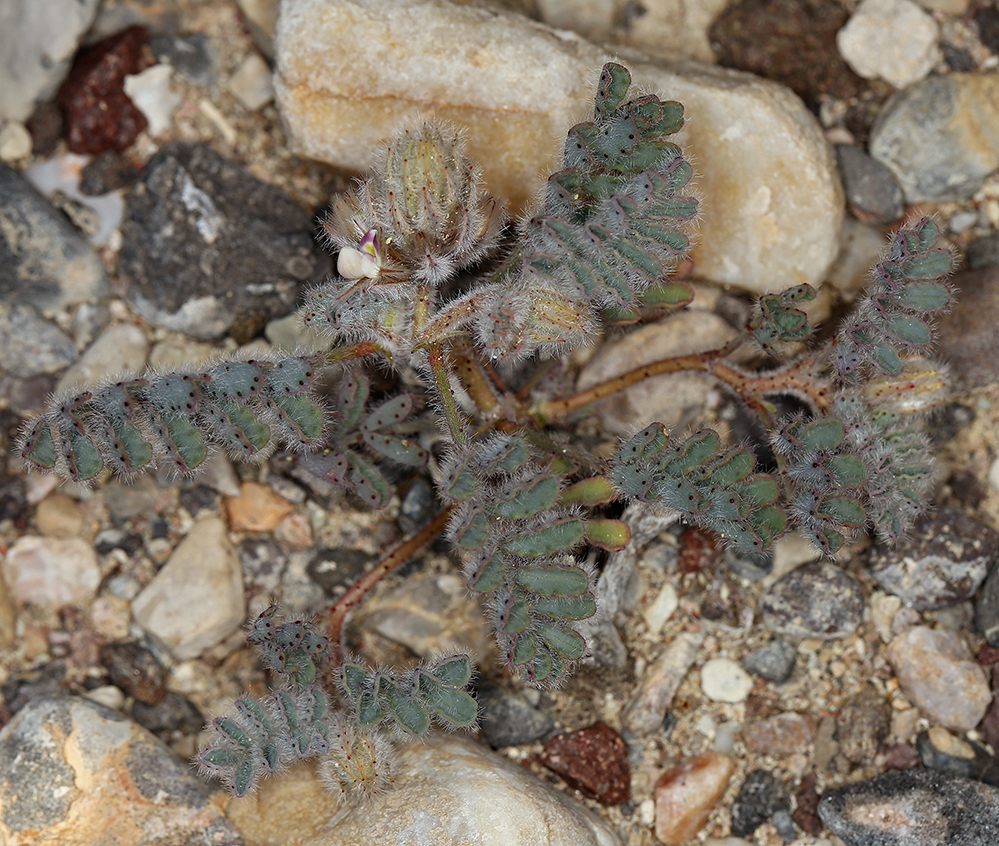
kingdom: Plantae
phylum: Tracheophyta
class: Magnoliopsida
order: Fabales
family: Fabaceae
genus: Dalea
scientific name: Dalea mollissima
